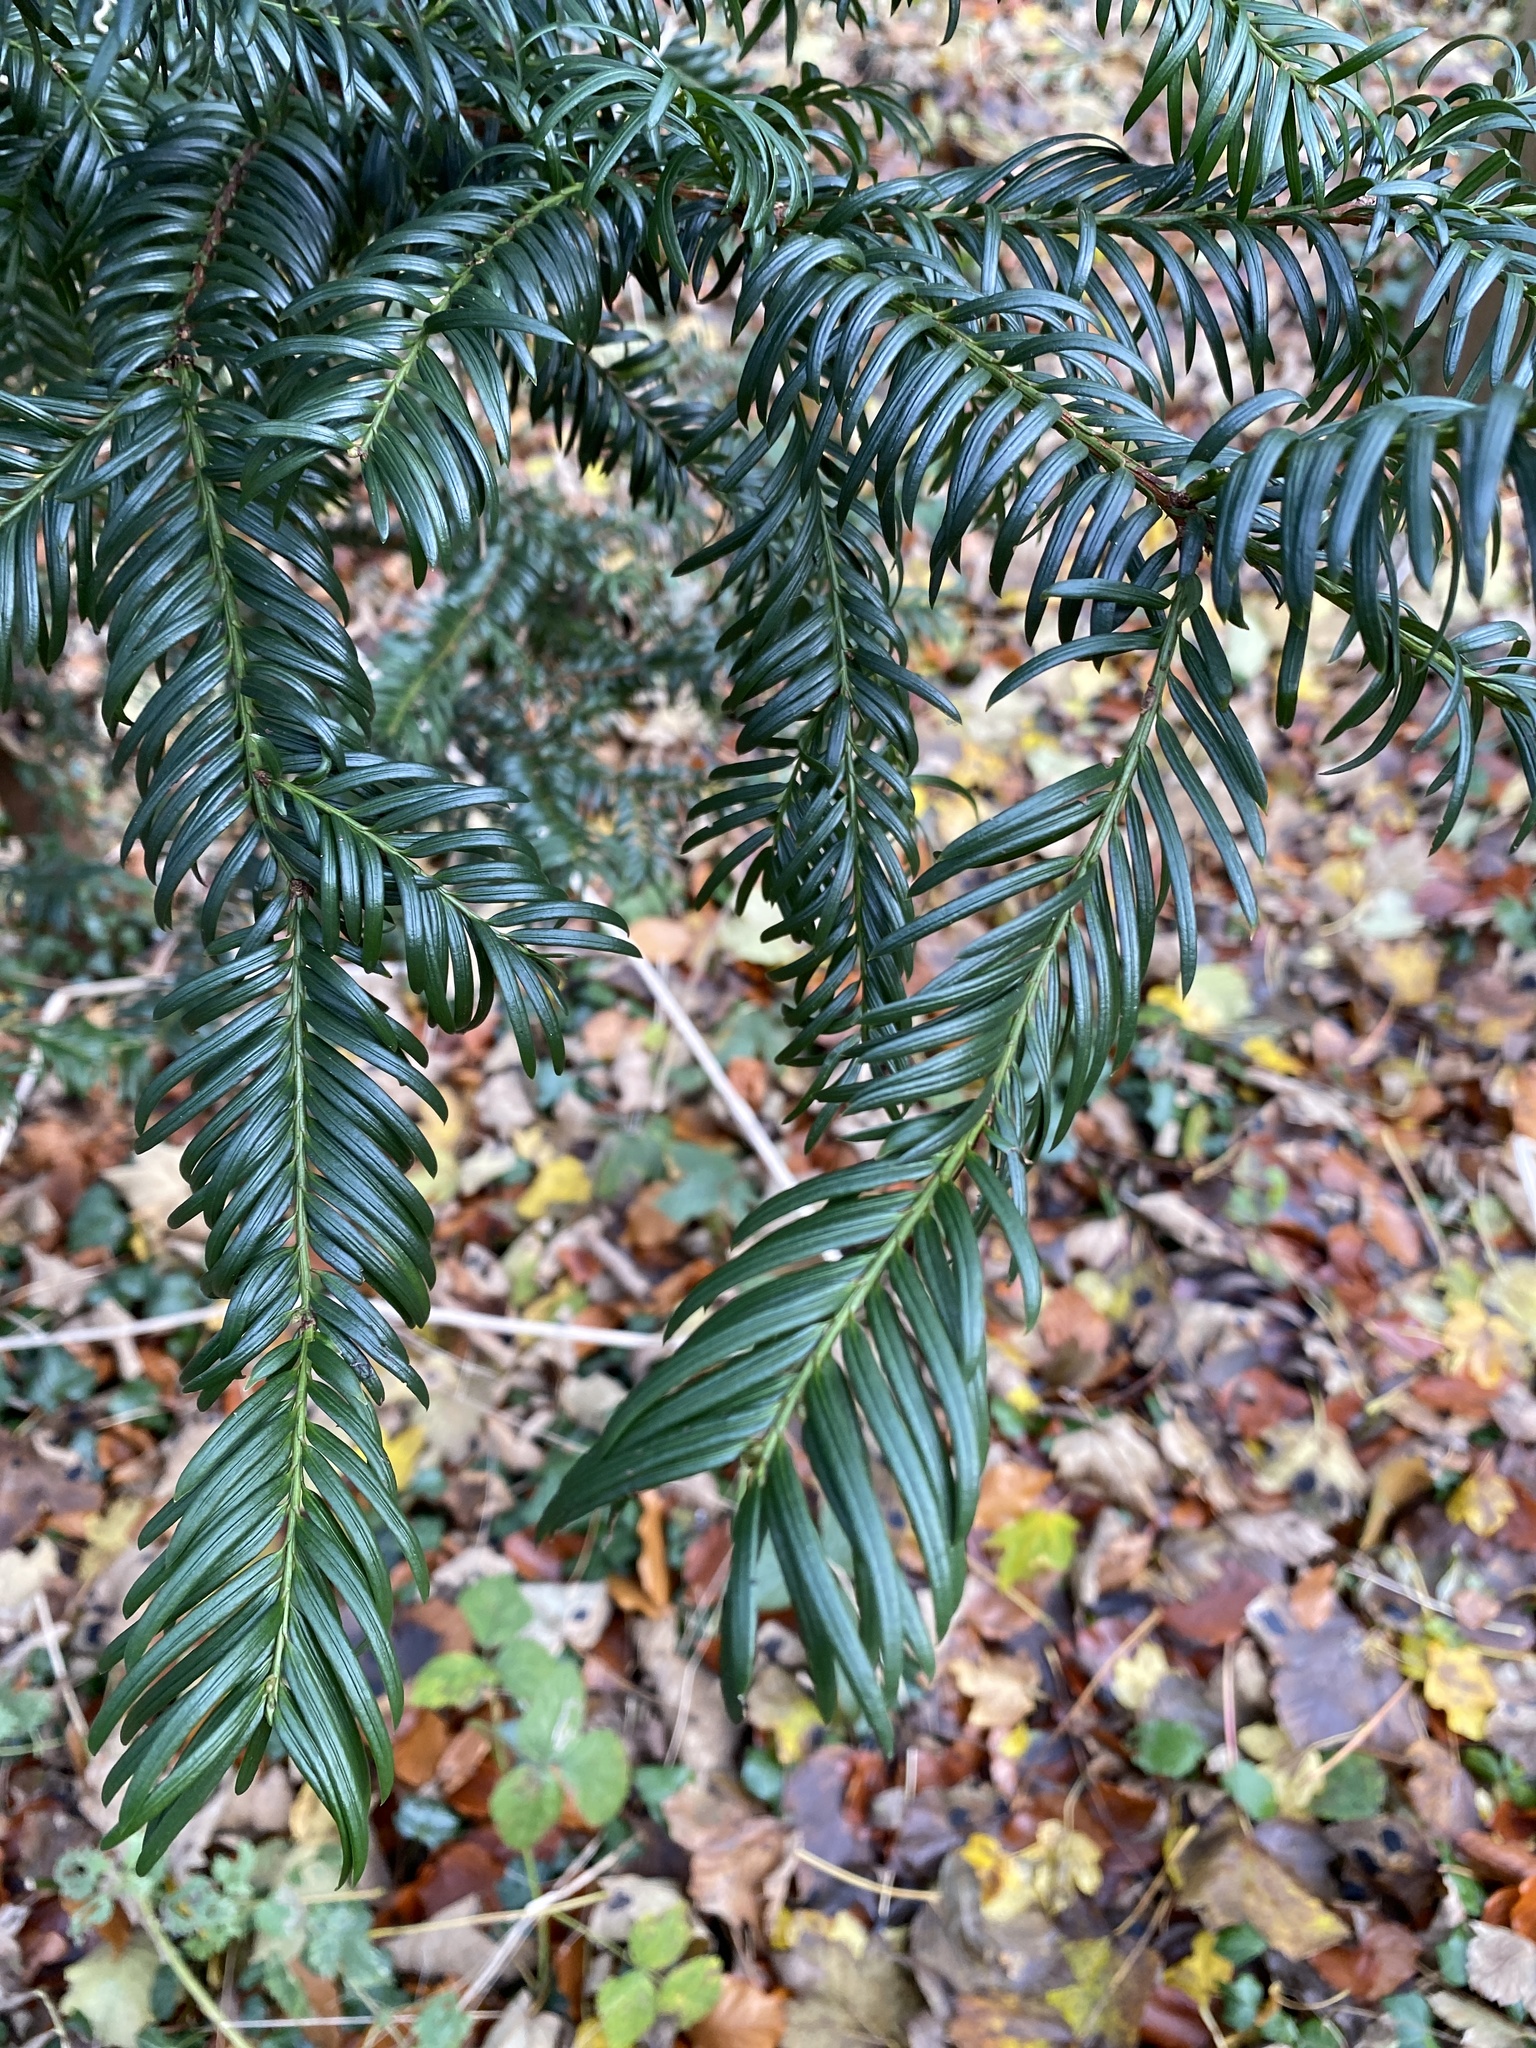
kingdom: Plantae
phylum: Tracheophyta
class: Pinopsida
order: Pinales
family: Taxaceae
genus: Taxus
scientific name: Taxus baccata
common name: Yew
